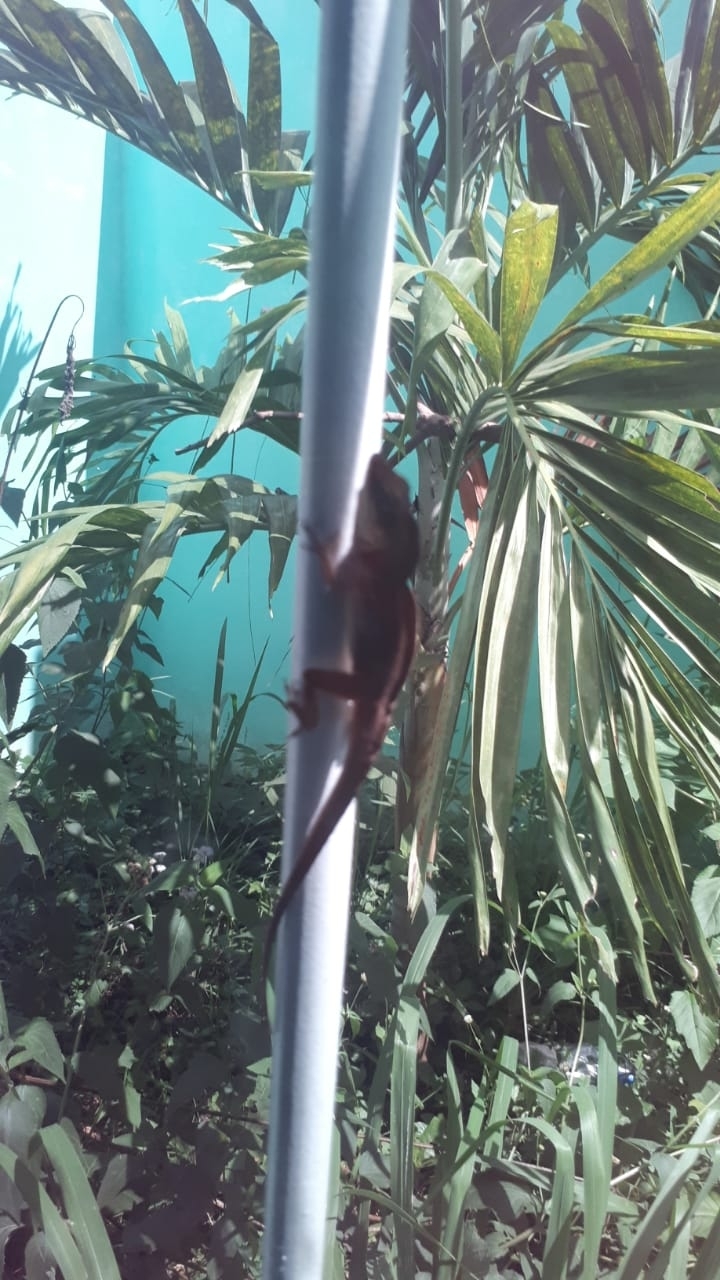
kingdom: Animalia
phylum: Chordata
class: Squamata
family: Dactyloidae
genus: Anolis
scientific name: Anolis sagrei
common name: Brown anole
